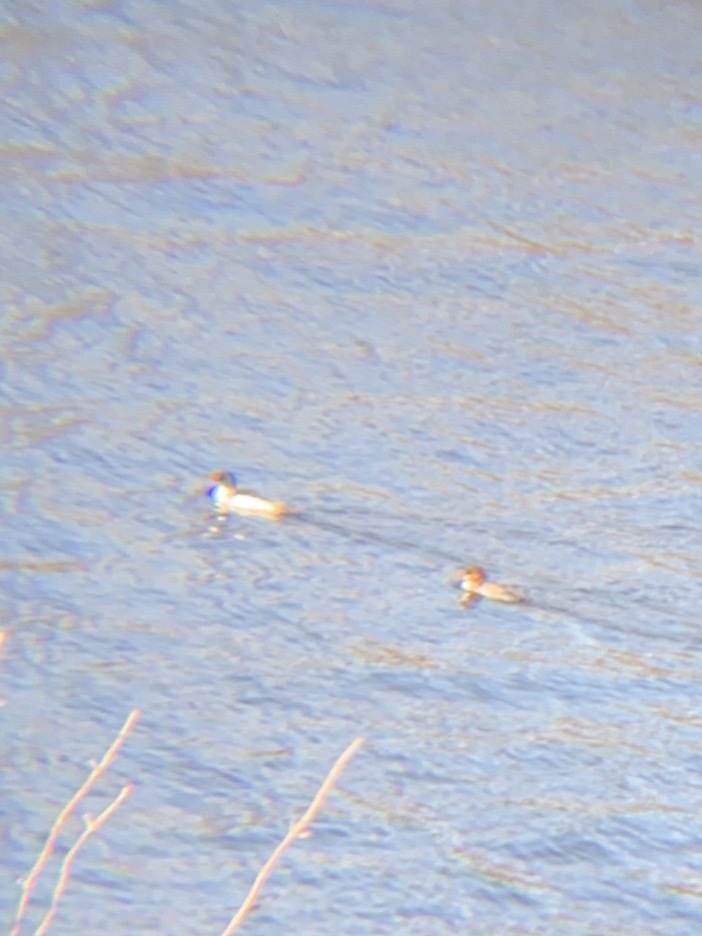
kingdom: Animalia
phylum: Chordata
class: Aves
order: Anseriformes
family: Anatidae
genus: Mergus
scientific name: Mergus merganser
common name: Common merganser
